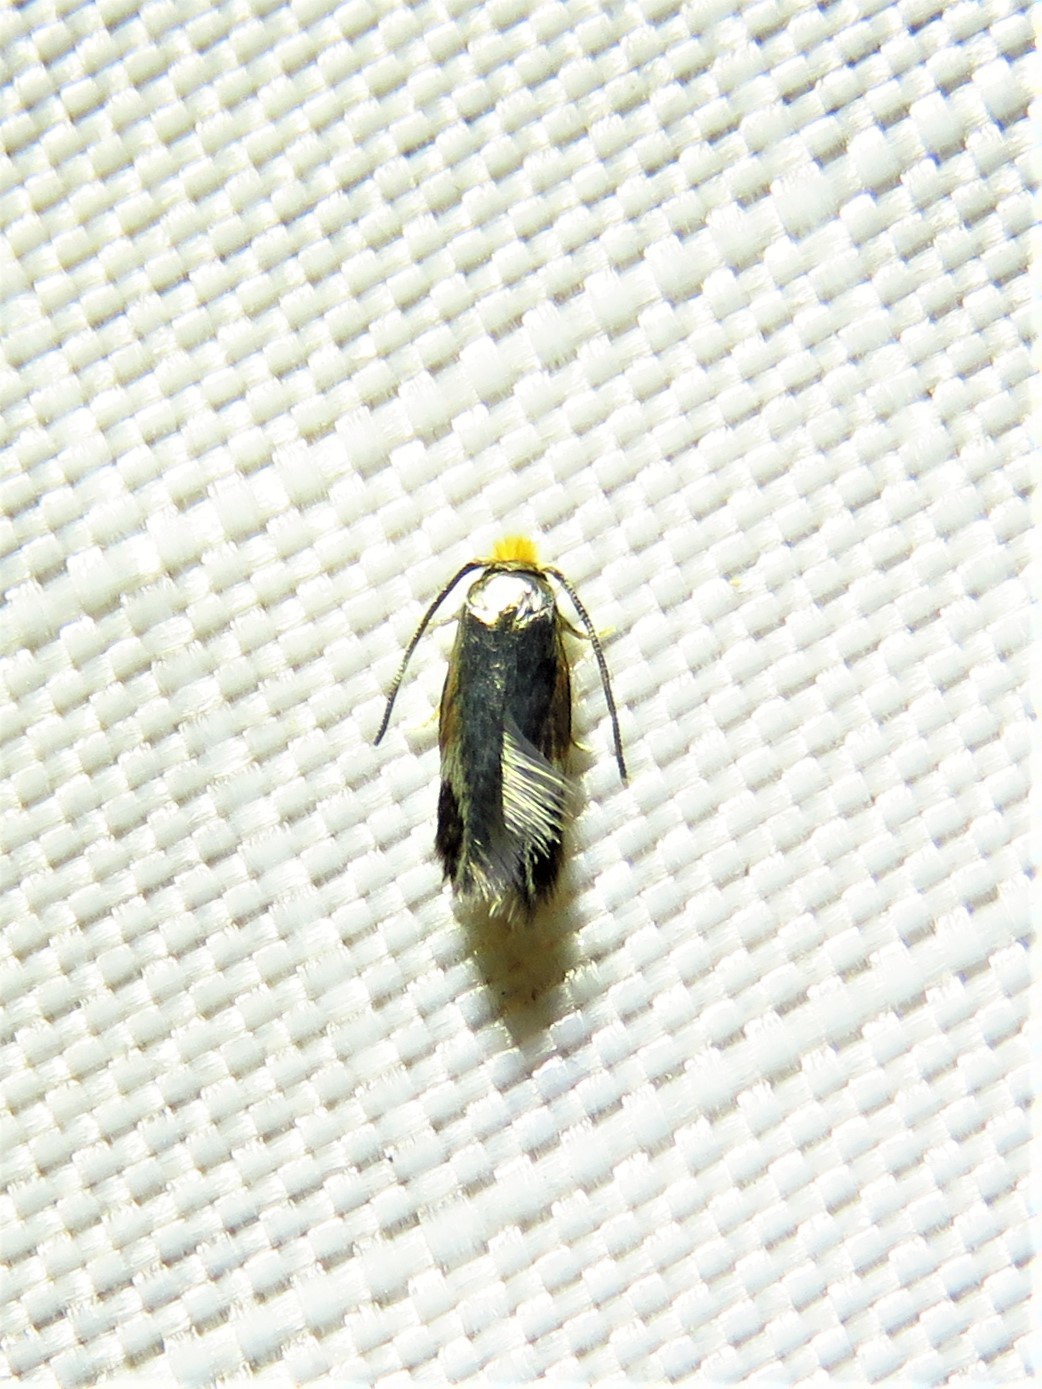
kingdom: Animalia
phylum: Arthropoda
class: Insecta
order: Lepidoptera
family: Nepticulidae
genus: Stigmella
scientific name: Stigmella resplendensella
